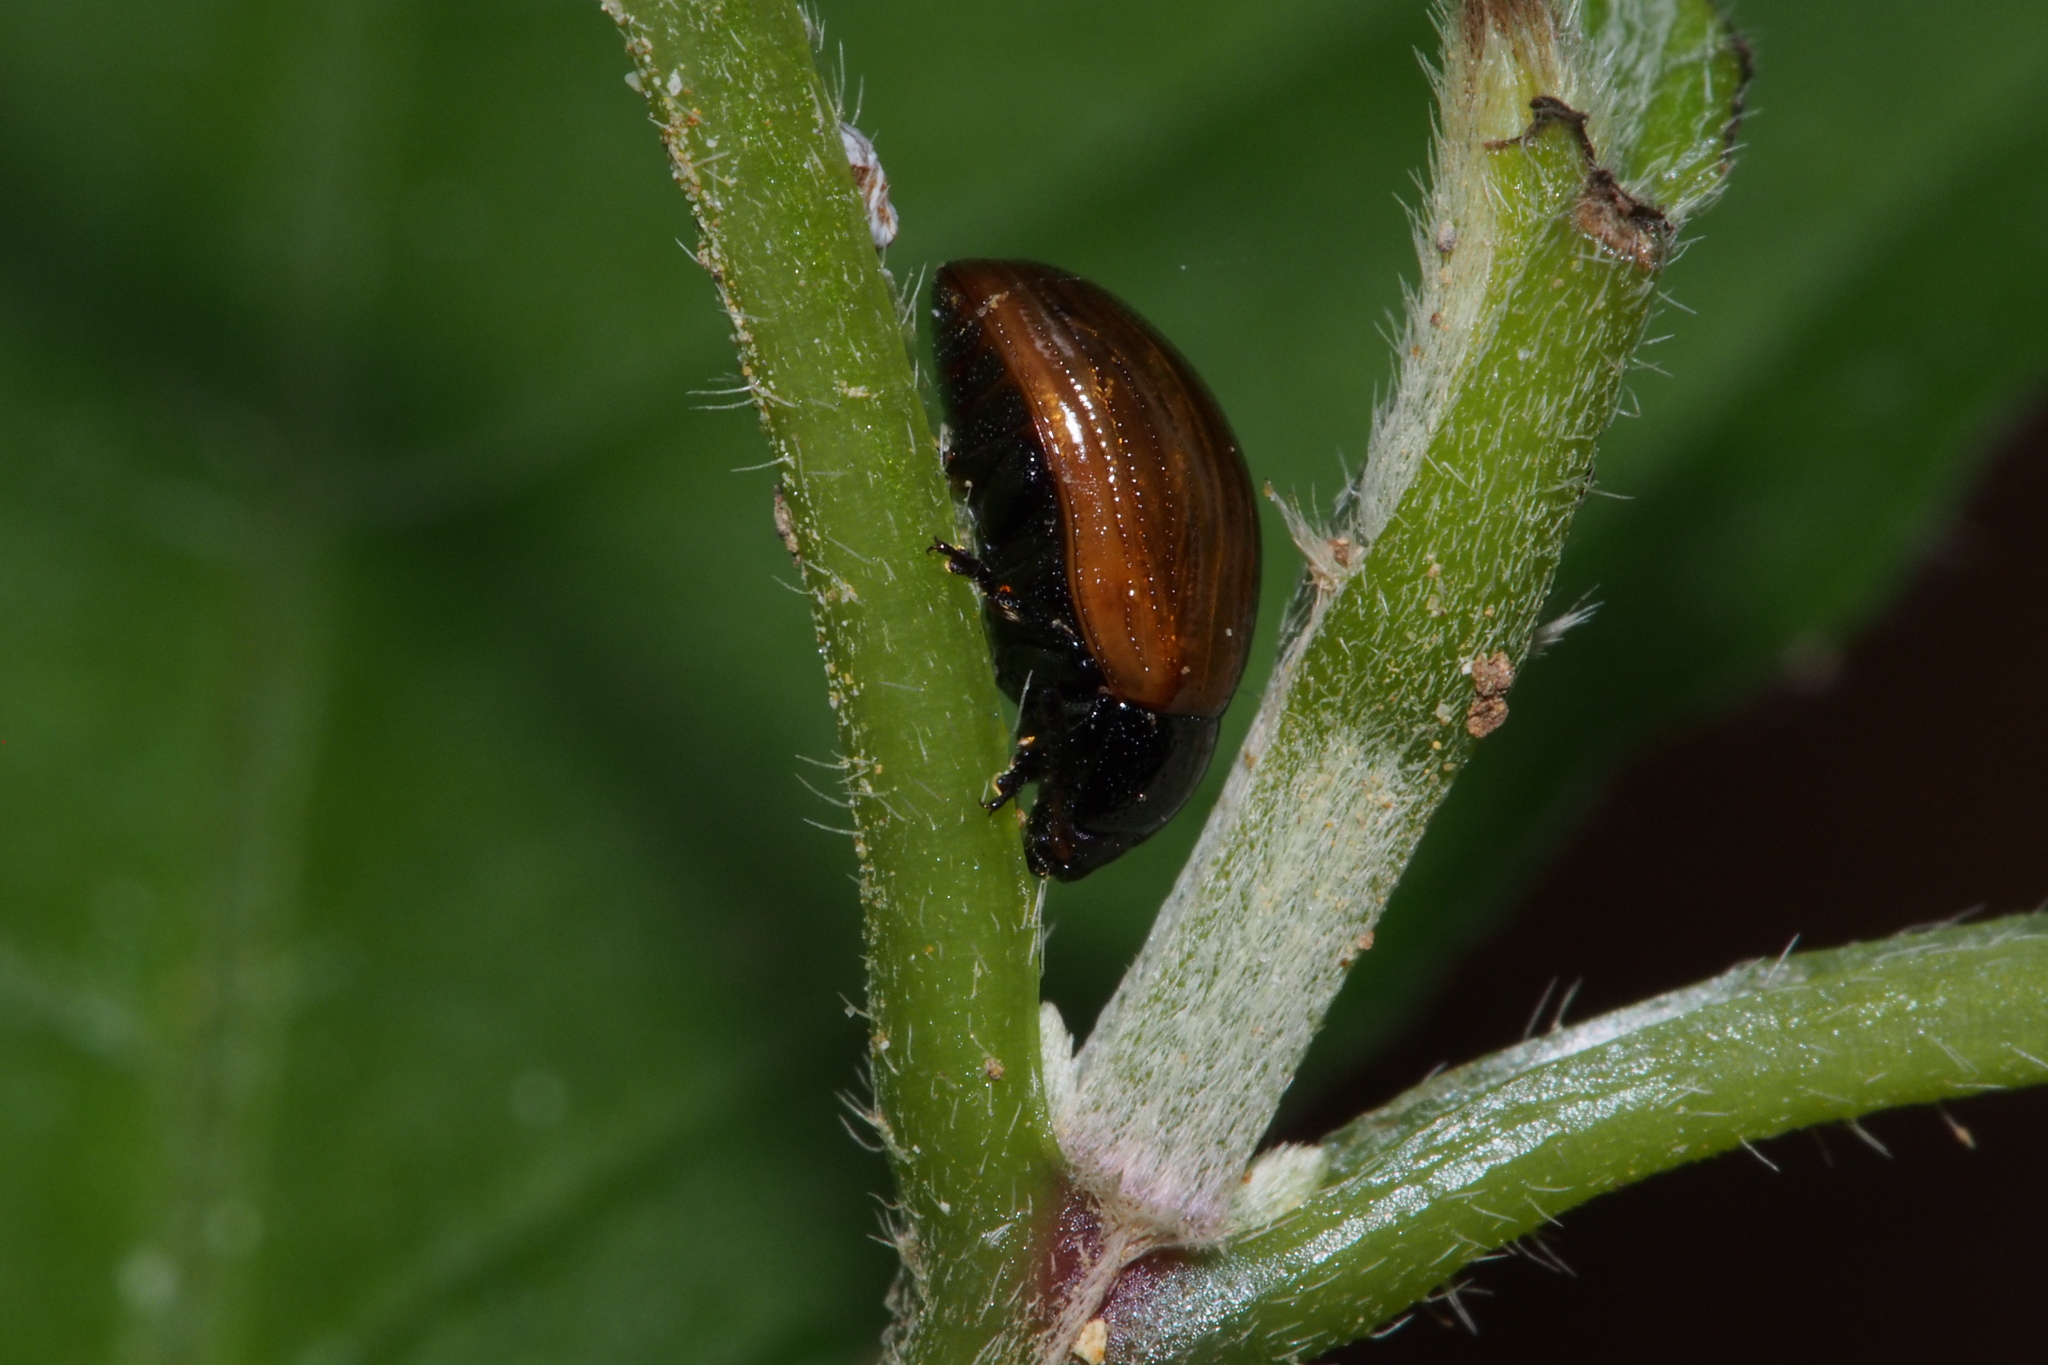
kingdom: Animalia
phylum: Arthropoda
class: Insecta
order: Coleoptera
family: Chrysomelidae
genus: Gonioctena
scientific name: Gonioctena
